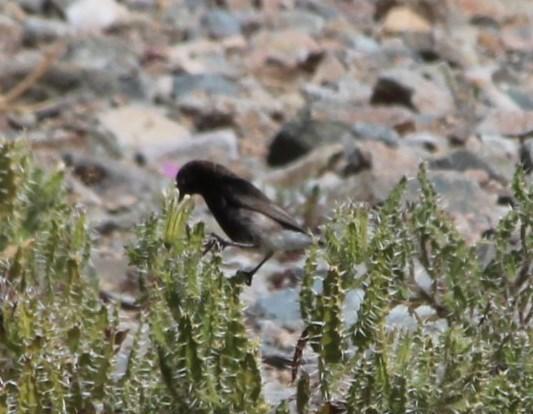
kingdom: Animalia
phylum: Chordata
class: Aves
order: Passeriformes
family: Nectariniidae
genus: Cinnyris
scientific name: Cinnyris fuscus
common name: Dusky sunbird
